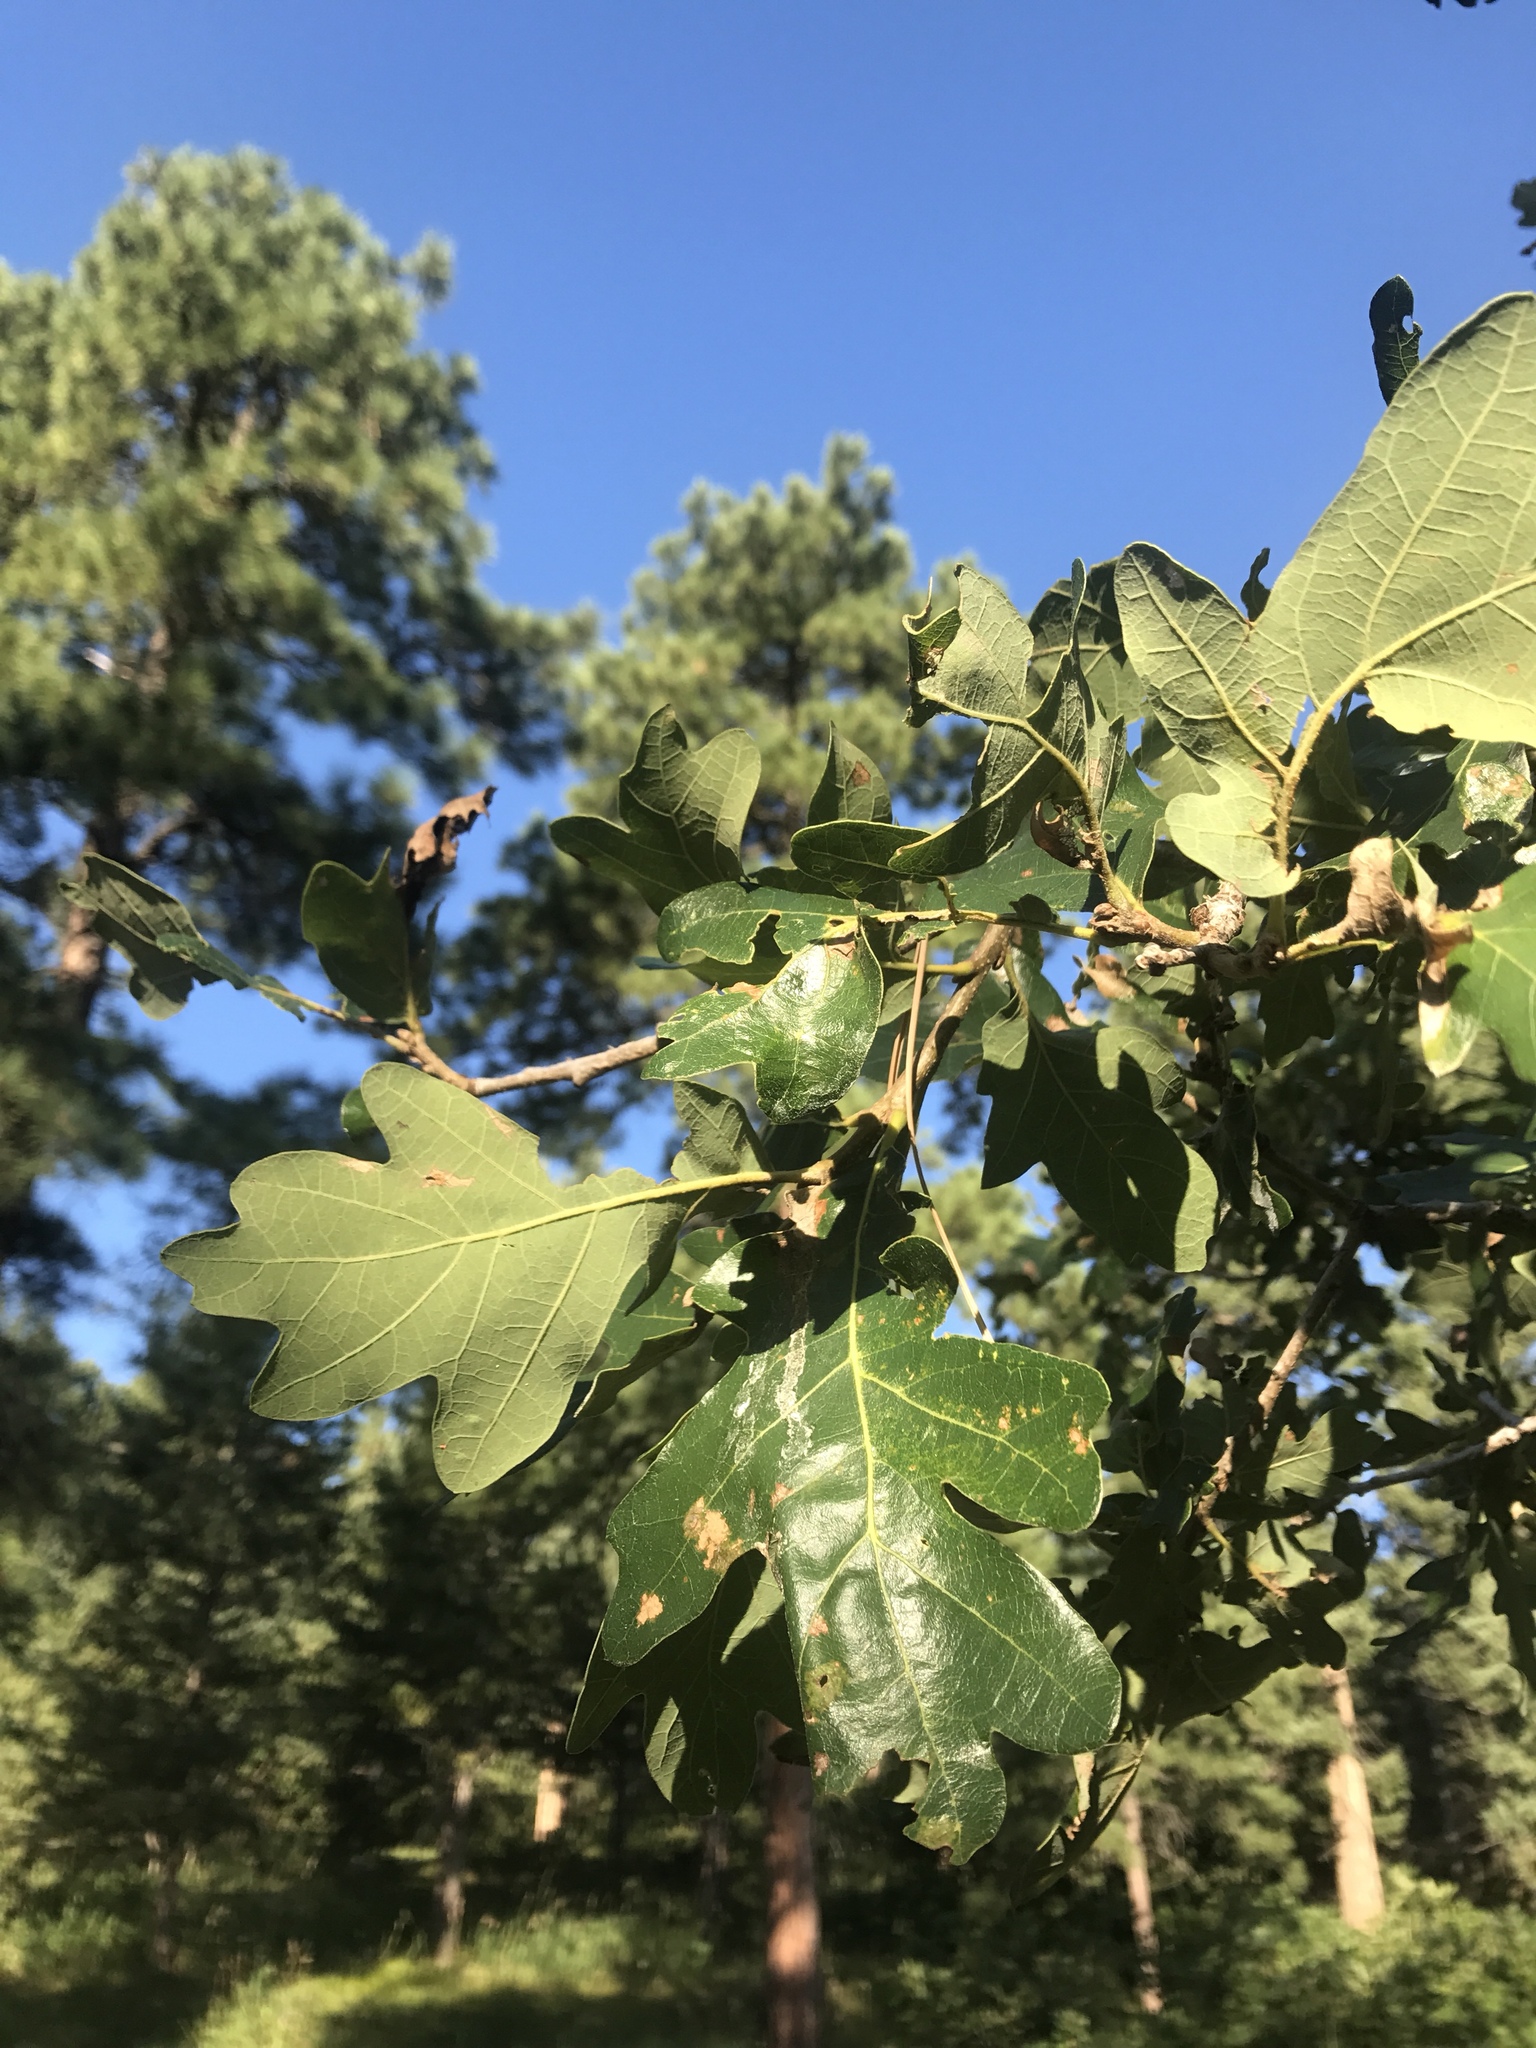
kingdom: Plantae
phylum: Tracheophyta
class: Magnoliopsida
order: Fagales
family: Fagaceae
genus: Quercus
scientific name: Quercus gambelii
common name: Gambel oak
